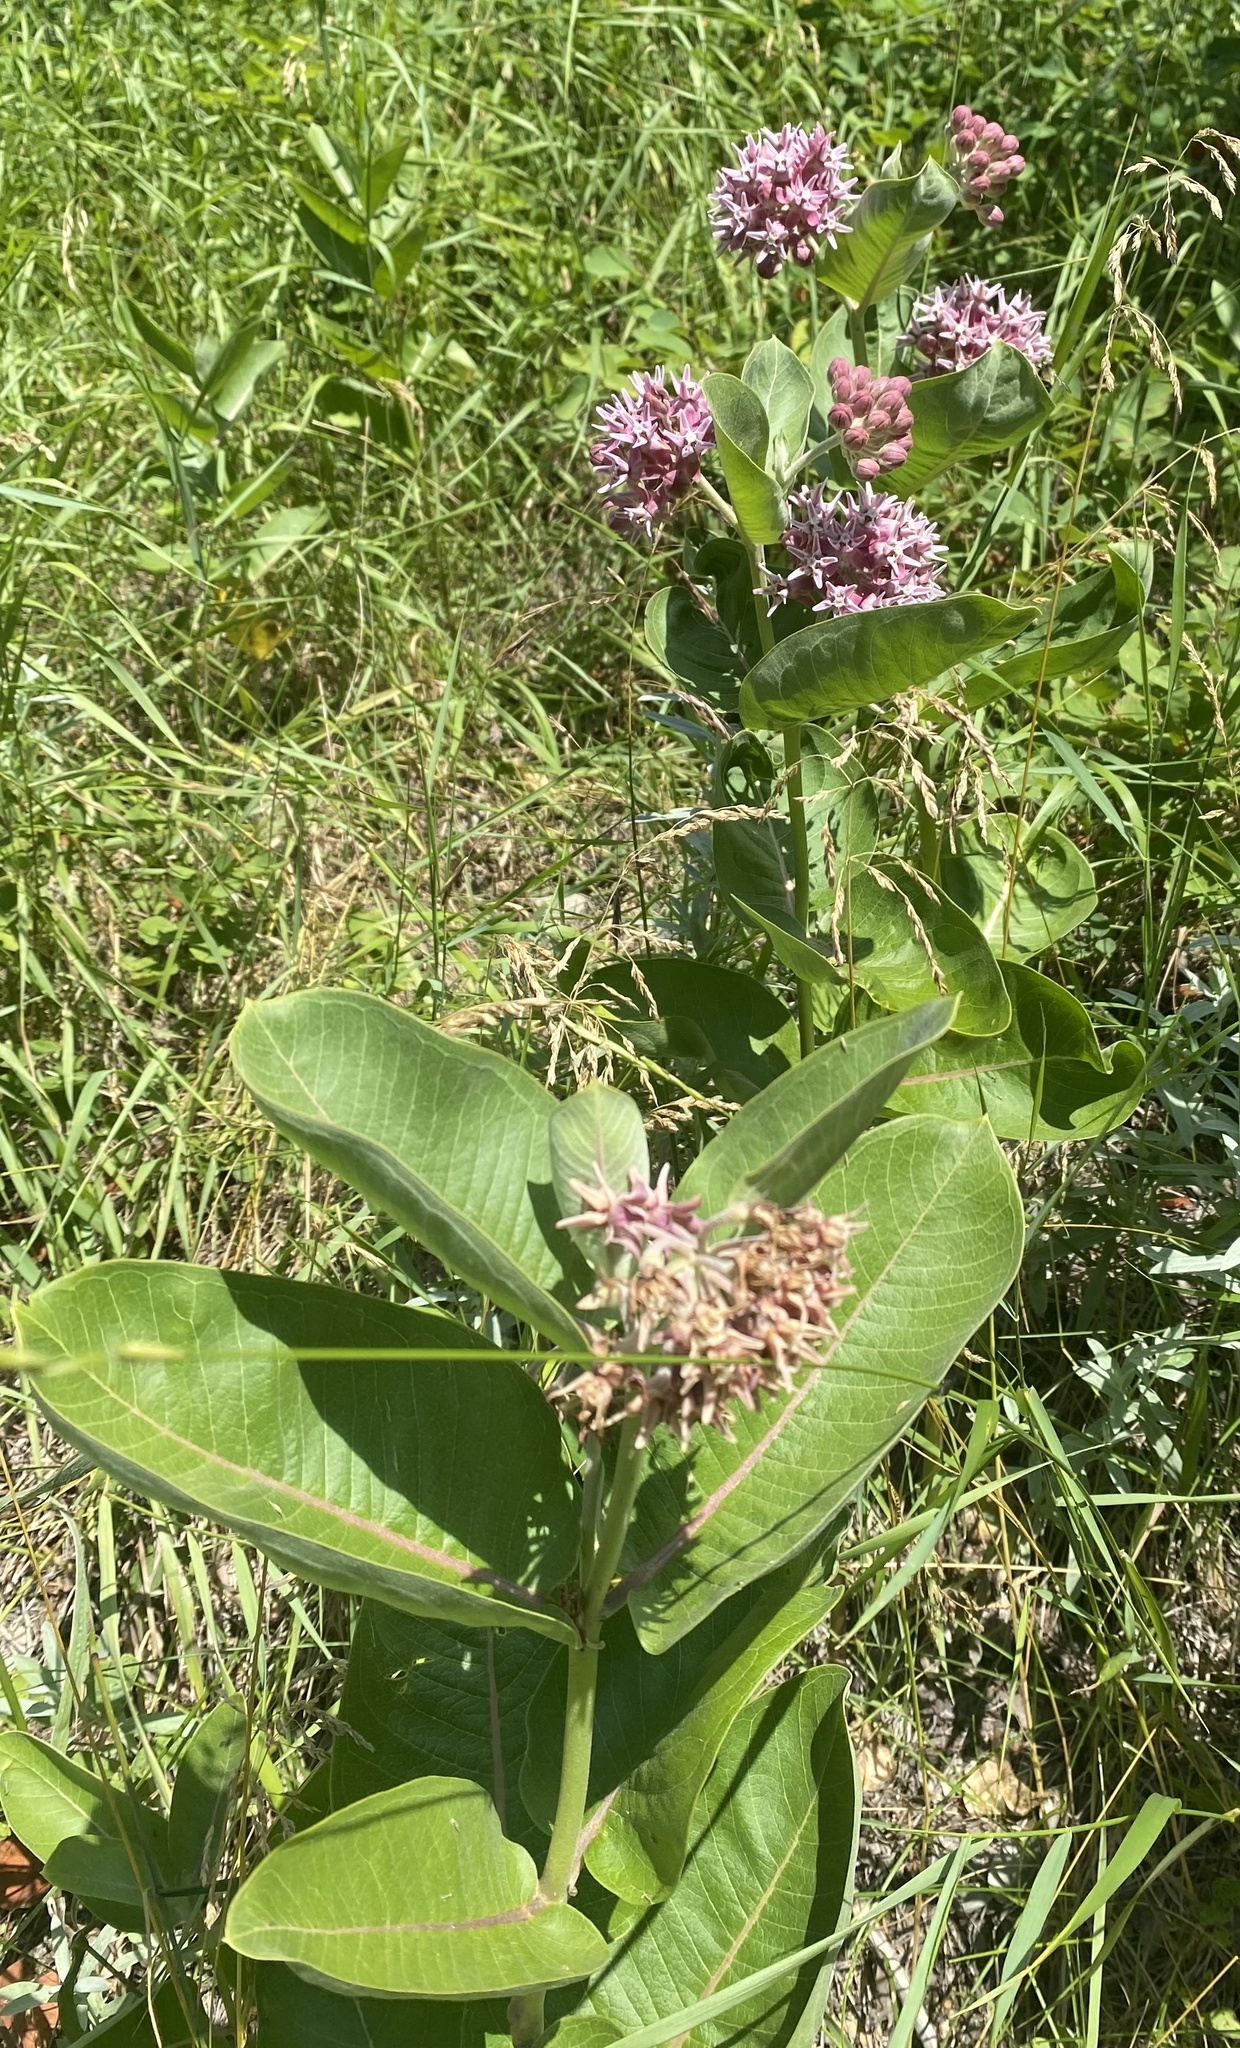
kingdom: Plantae
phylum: Tracheophyta
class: Magnoliopsida
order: Gentianales
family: Apocynaceae
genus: Asclepias
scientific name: Asclepias speciosa
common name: Showy milkweed
